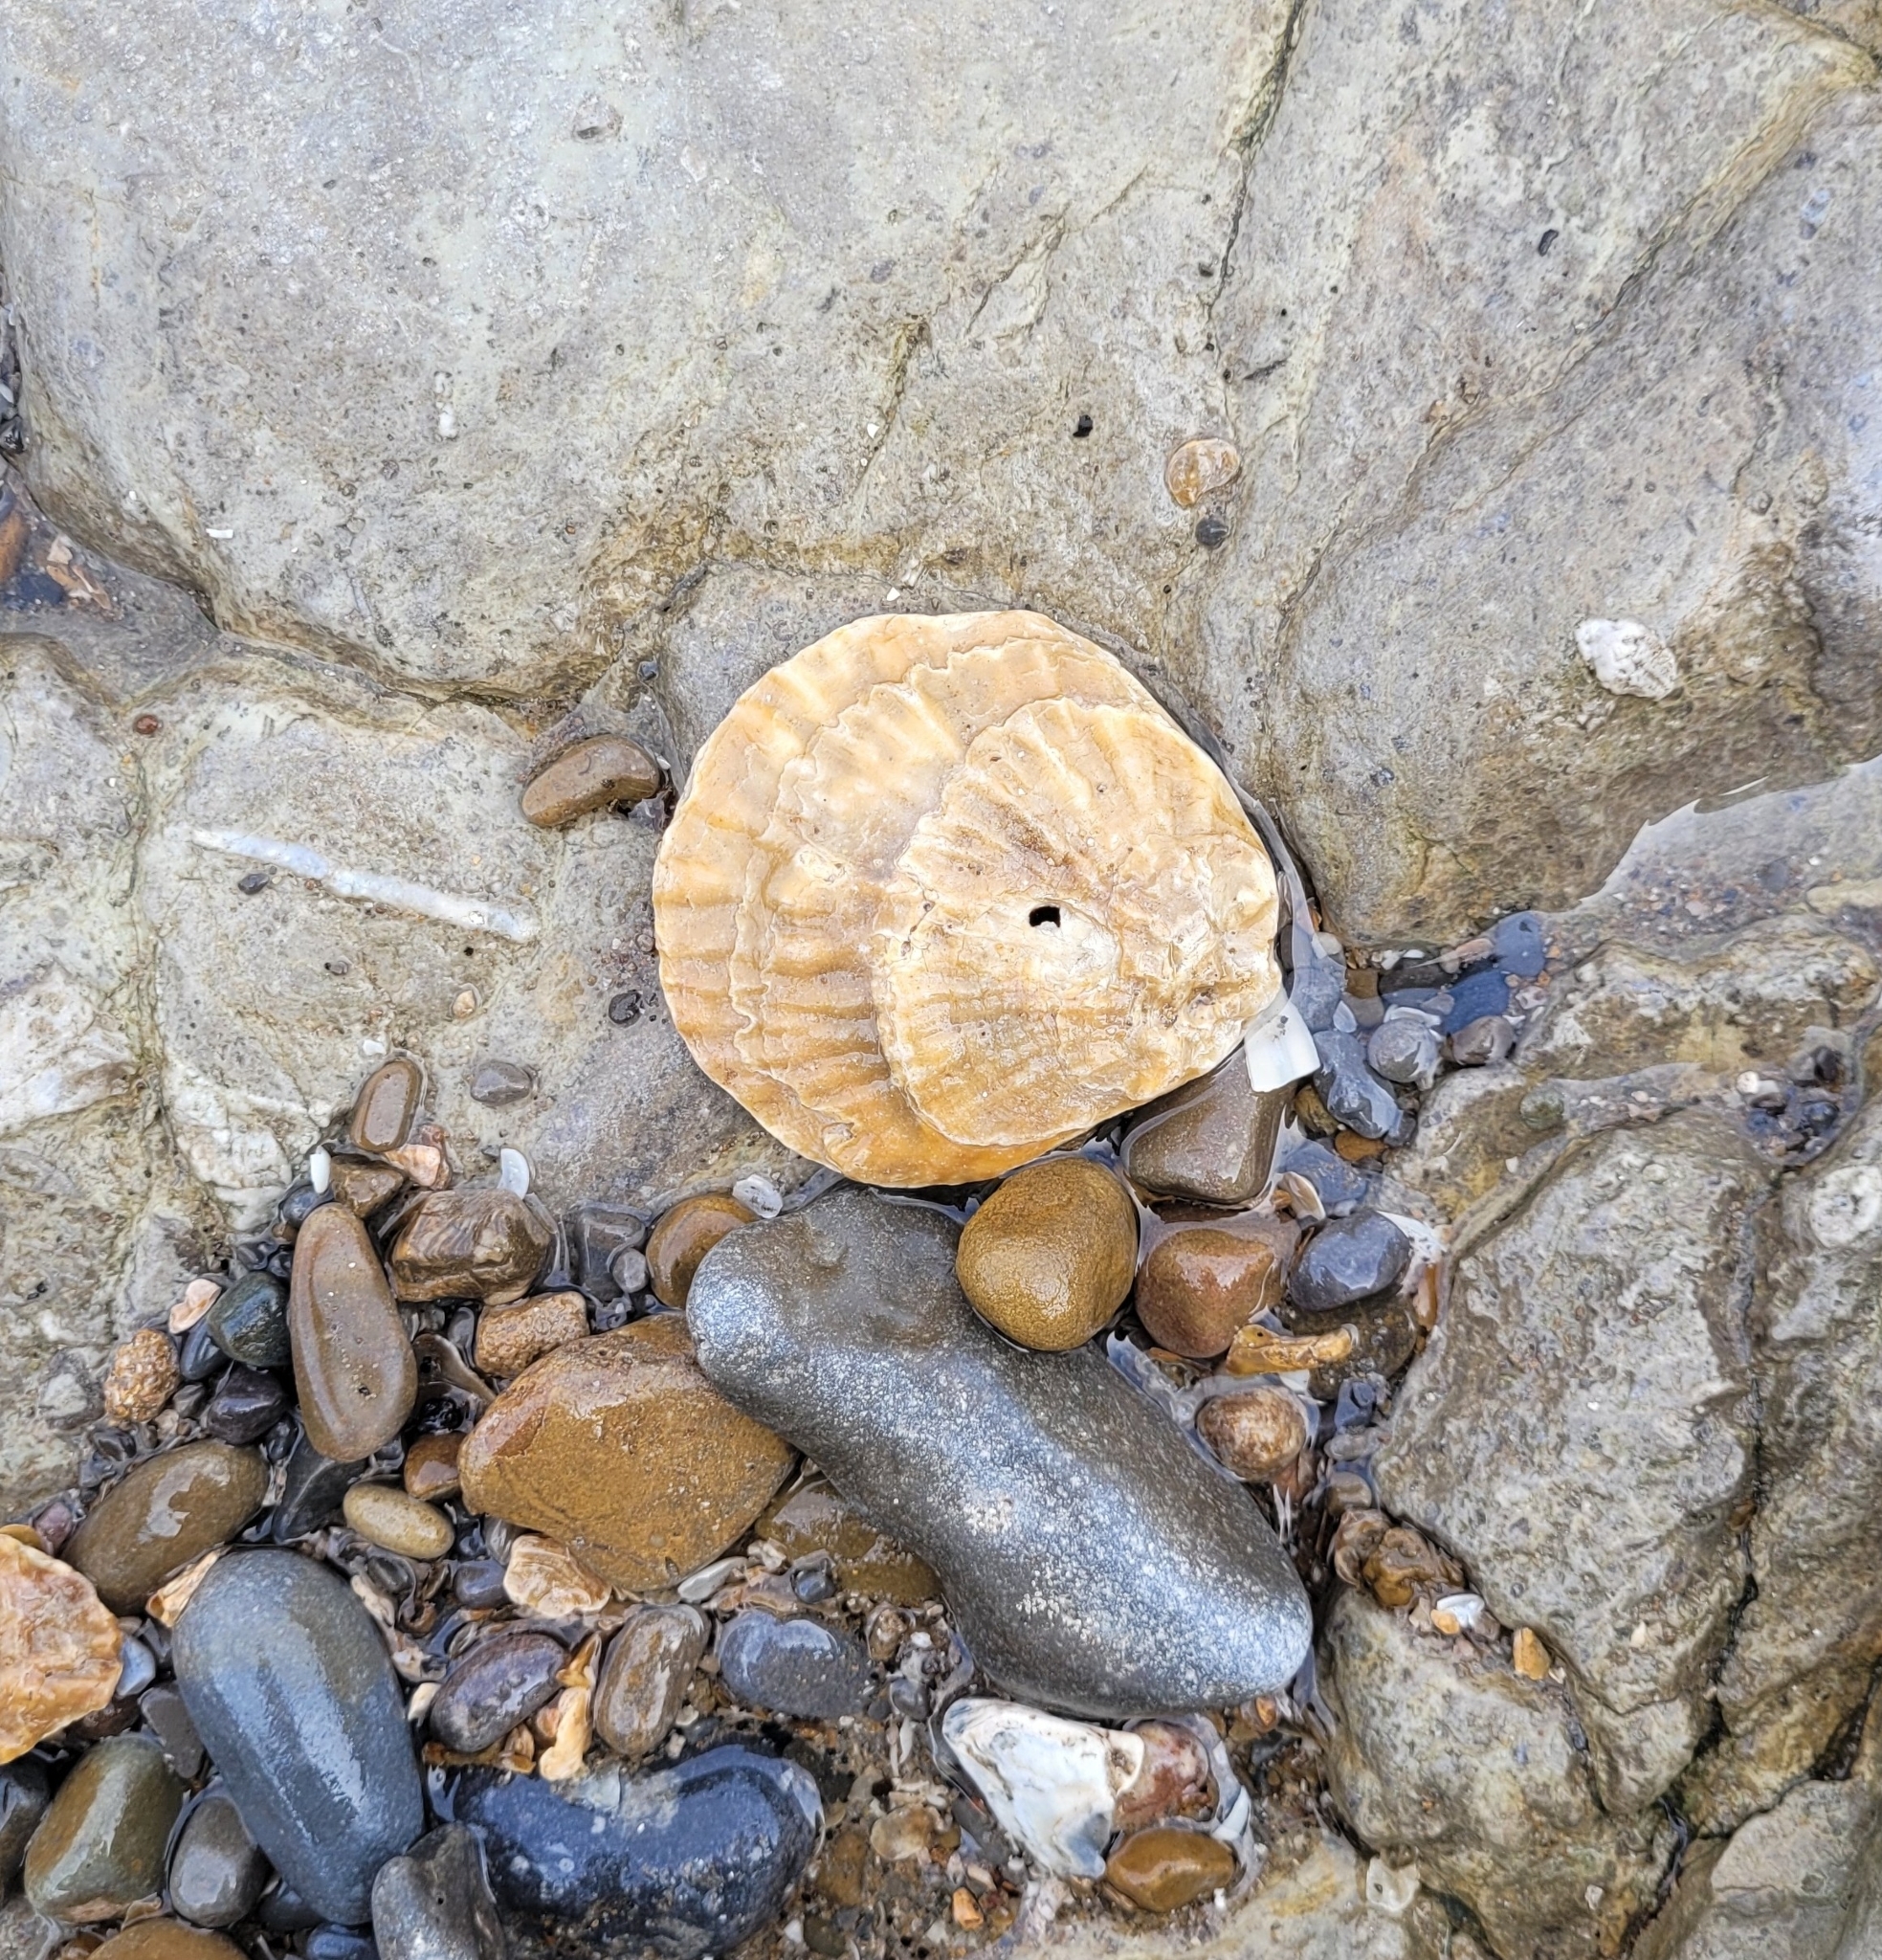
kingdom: Animalia
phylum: Mollusca
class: Bivalvia
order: Ostreida
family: Ostreidae
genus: Ostrea
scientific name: Ostrea edulis
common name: Flat oyster
